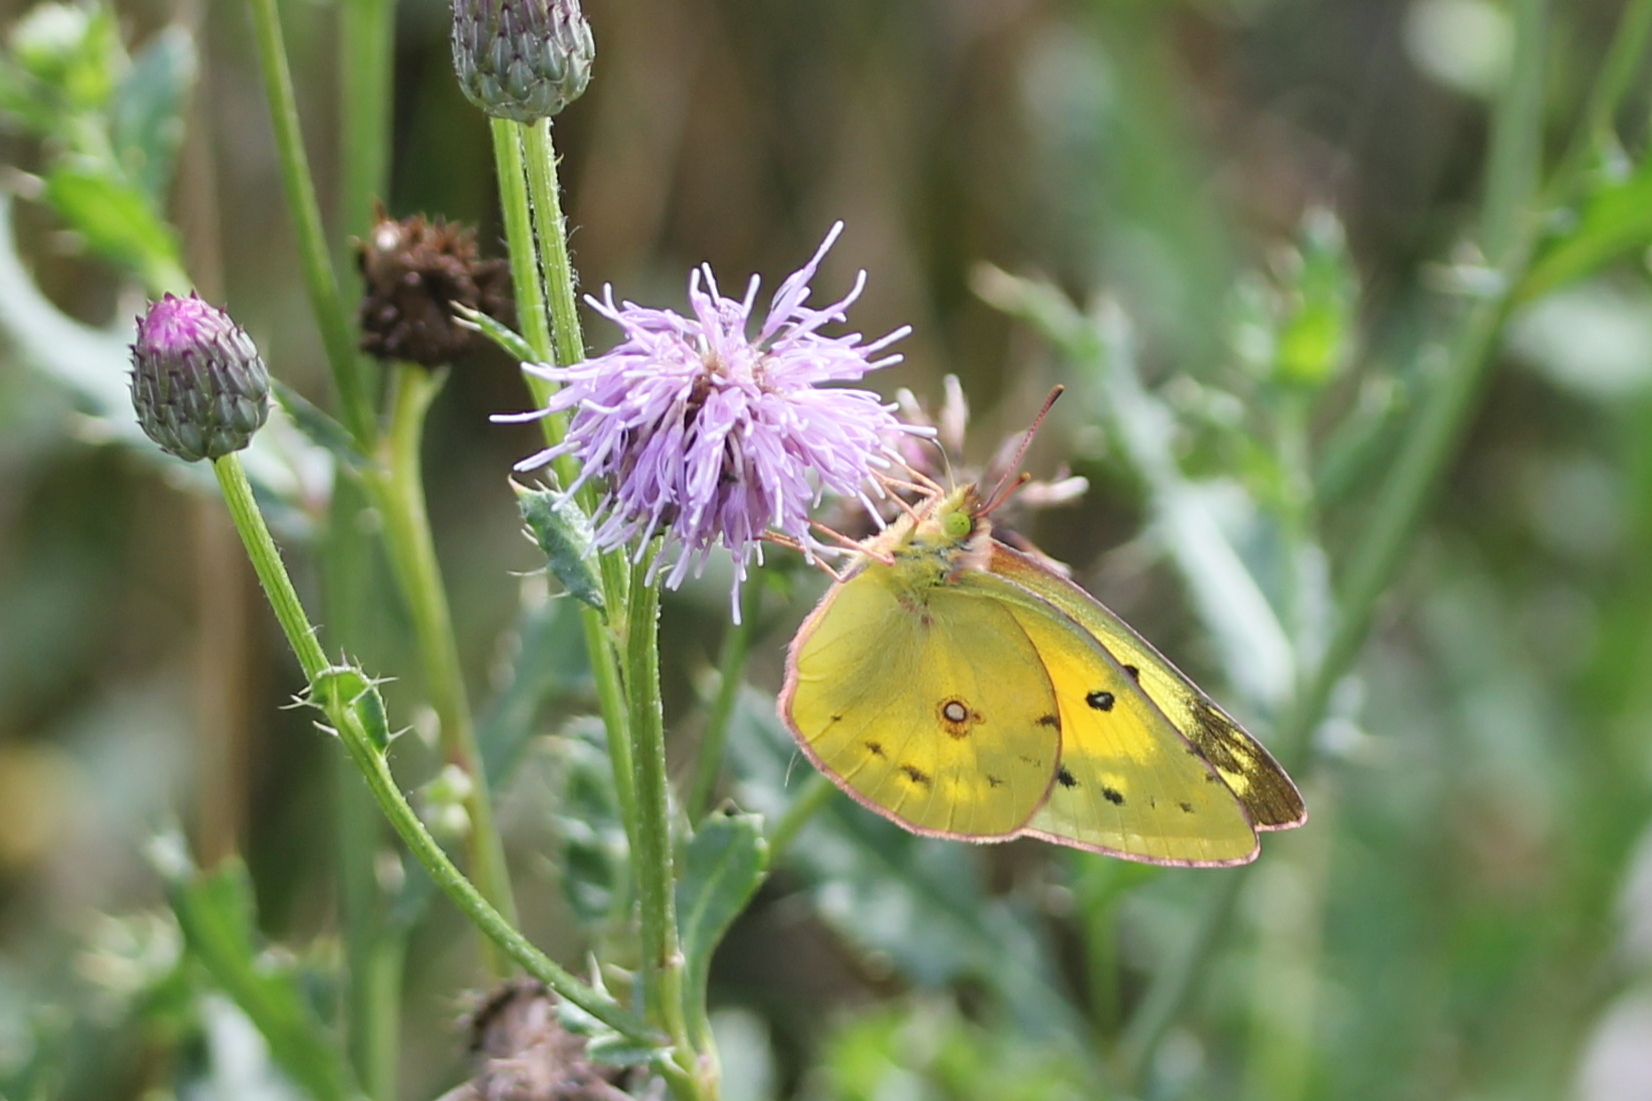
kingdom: Animalia
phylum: Arthropoda
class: Insecta
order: Lepidoptera
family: Pieridae
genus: Colias
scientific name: Colias eurytheme
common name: Alfalfa butterfly
